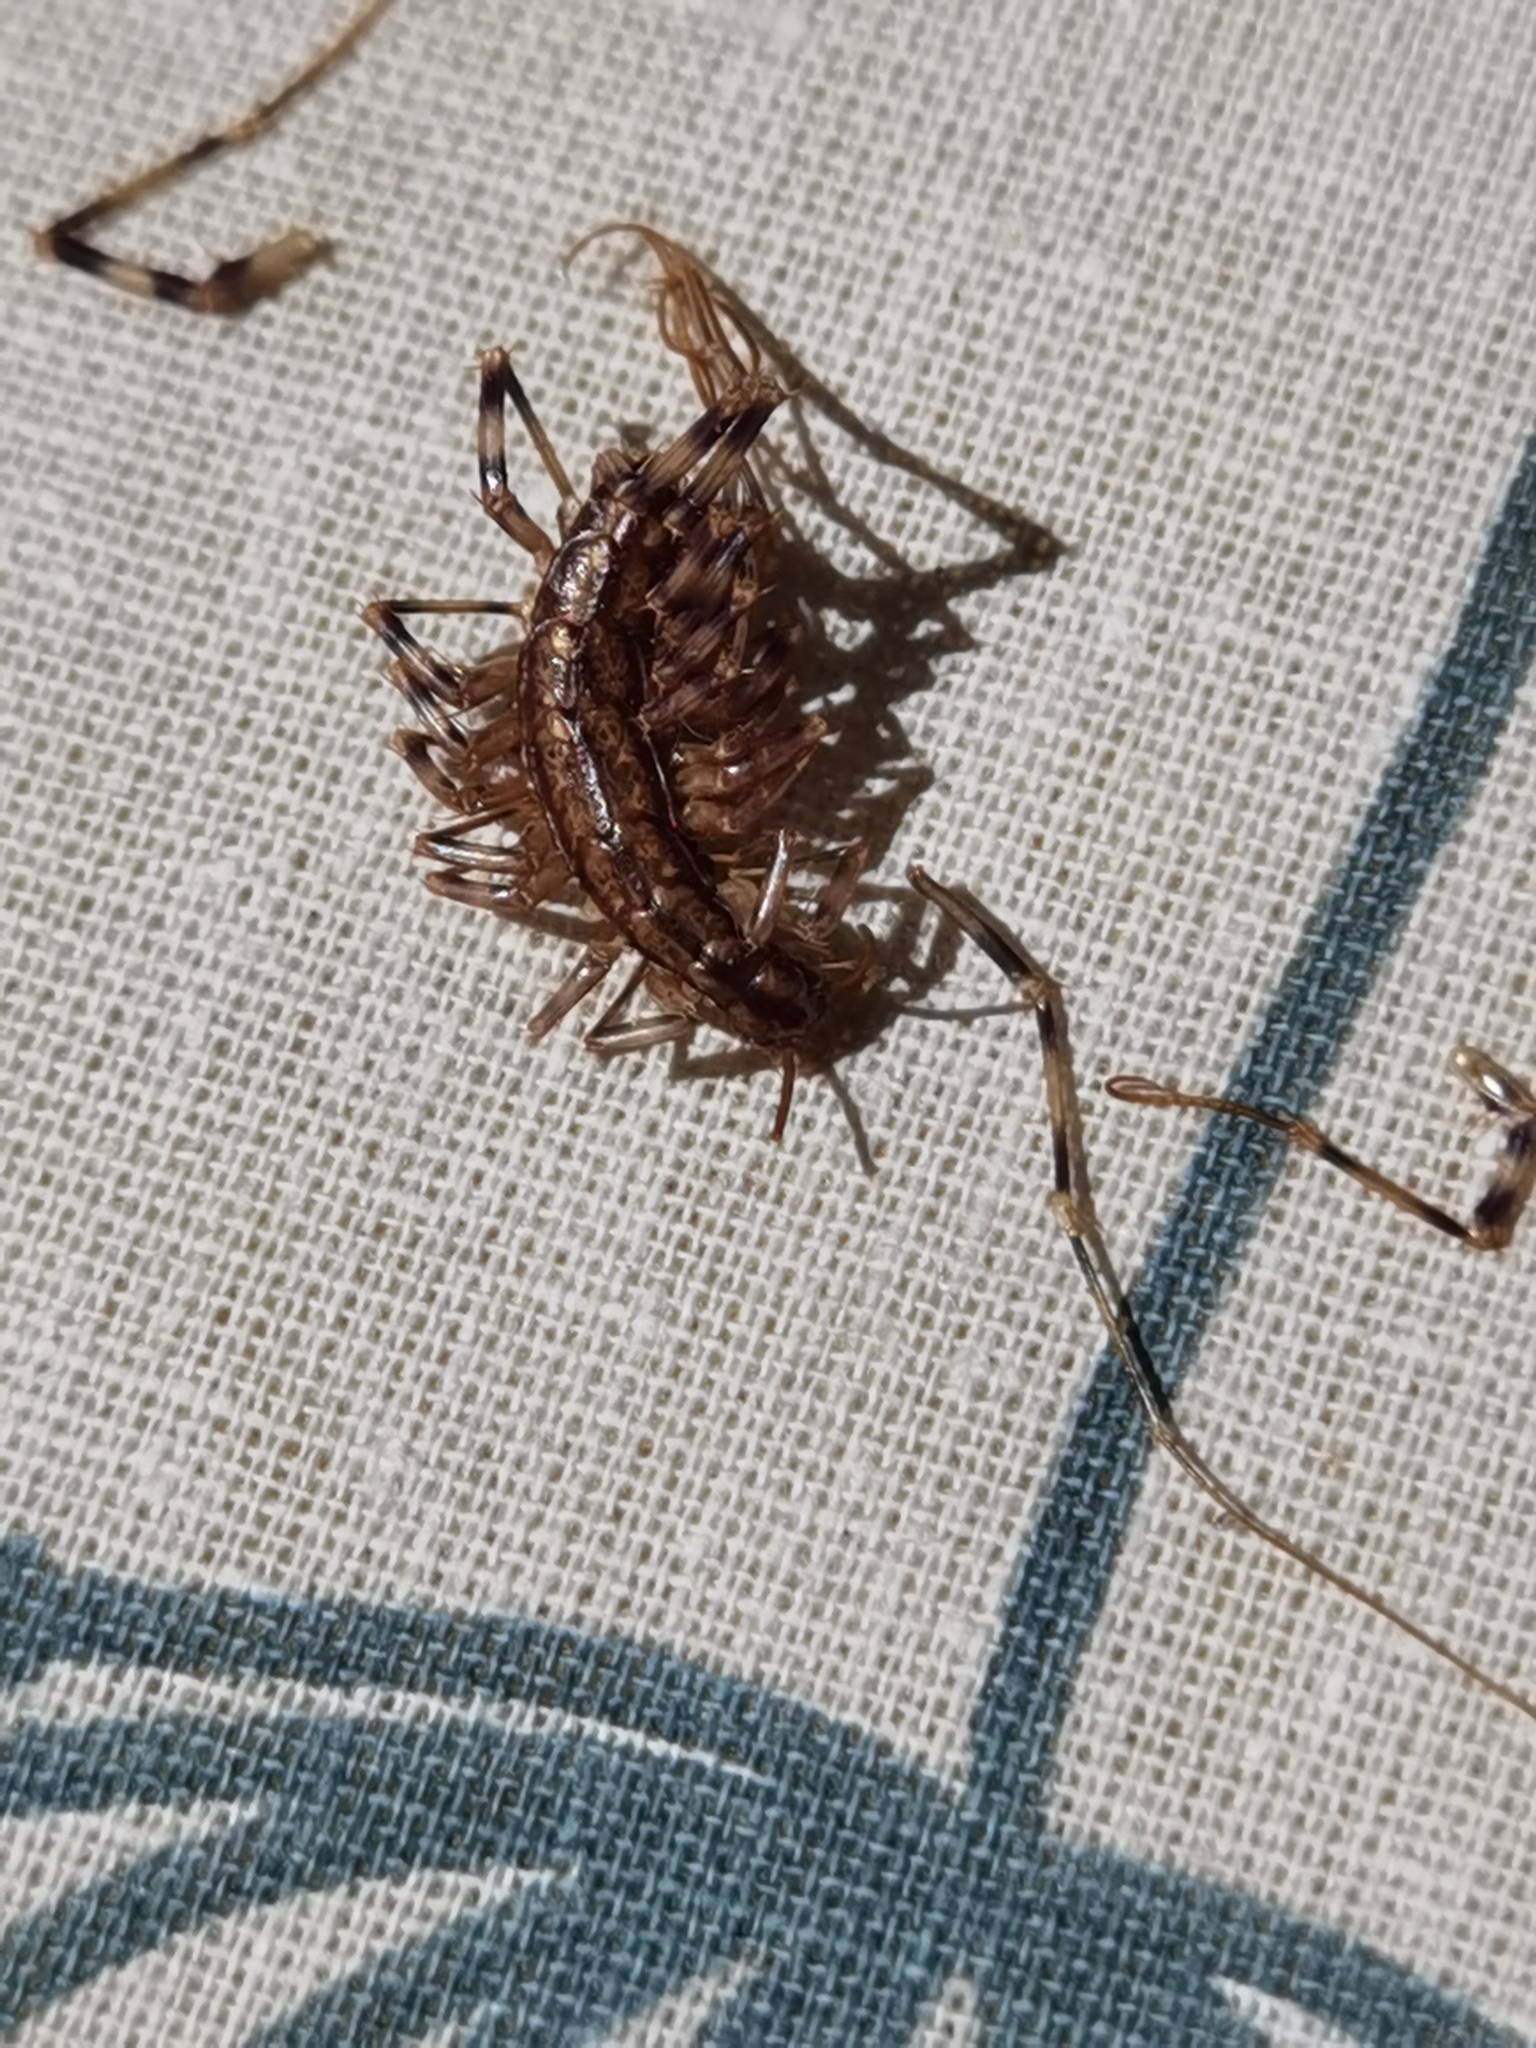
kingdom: Animalia
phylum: Arthropoda
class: Chilopoda
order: Scutigeromorpha
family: Scutigeridae
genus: Scutigera
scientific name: Scutigera coleoptrata
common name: House centipede
